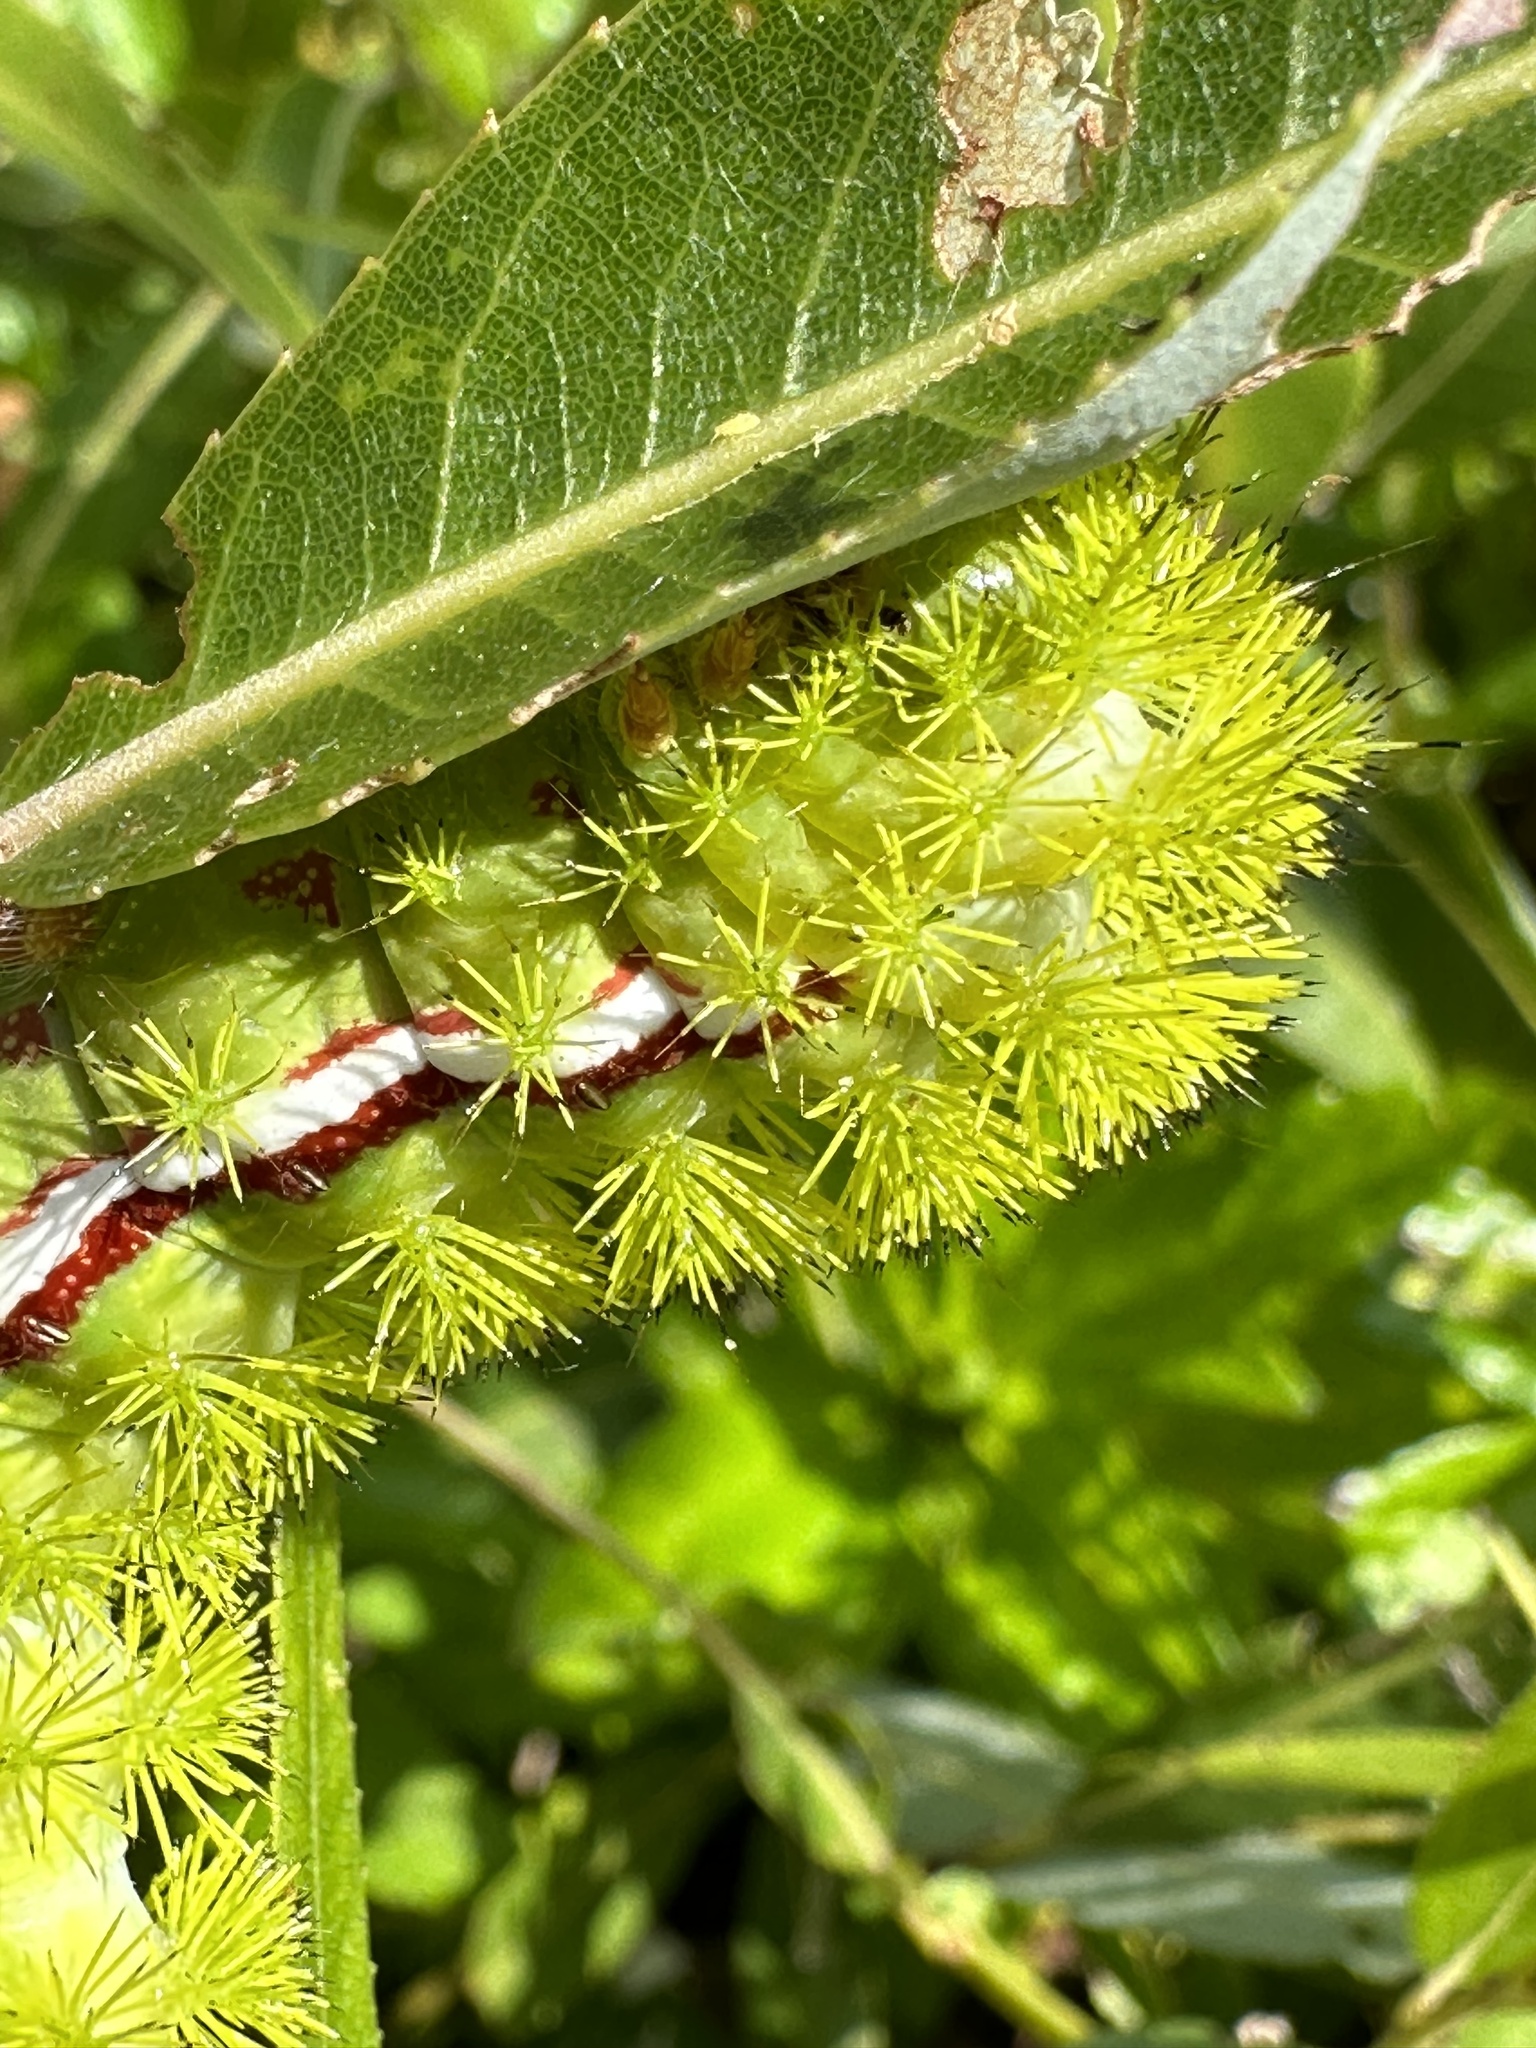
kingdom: Animalia
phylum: Arthropoda
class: Insecta
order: Lepidoptera
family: Saturniidae
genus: Automeris
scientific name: Automeris io
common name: Io moth
